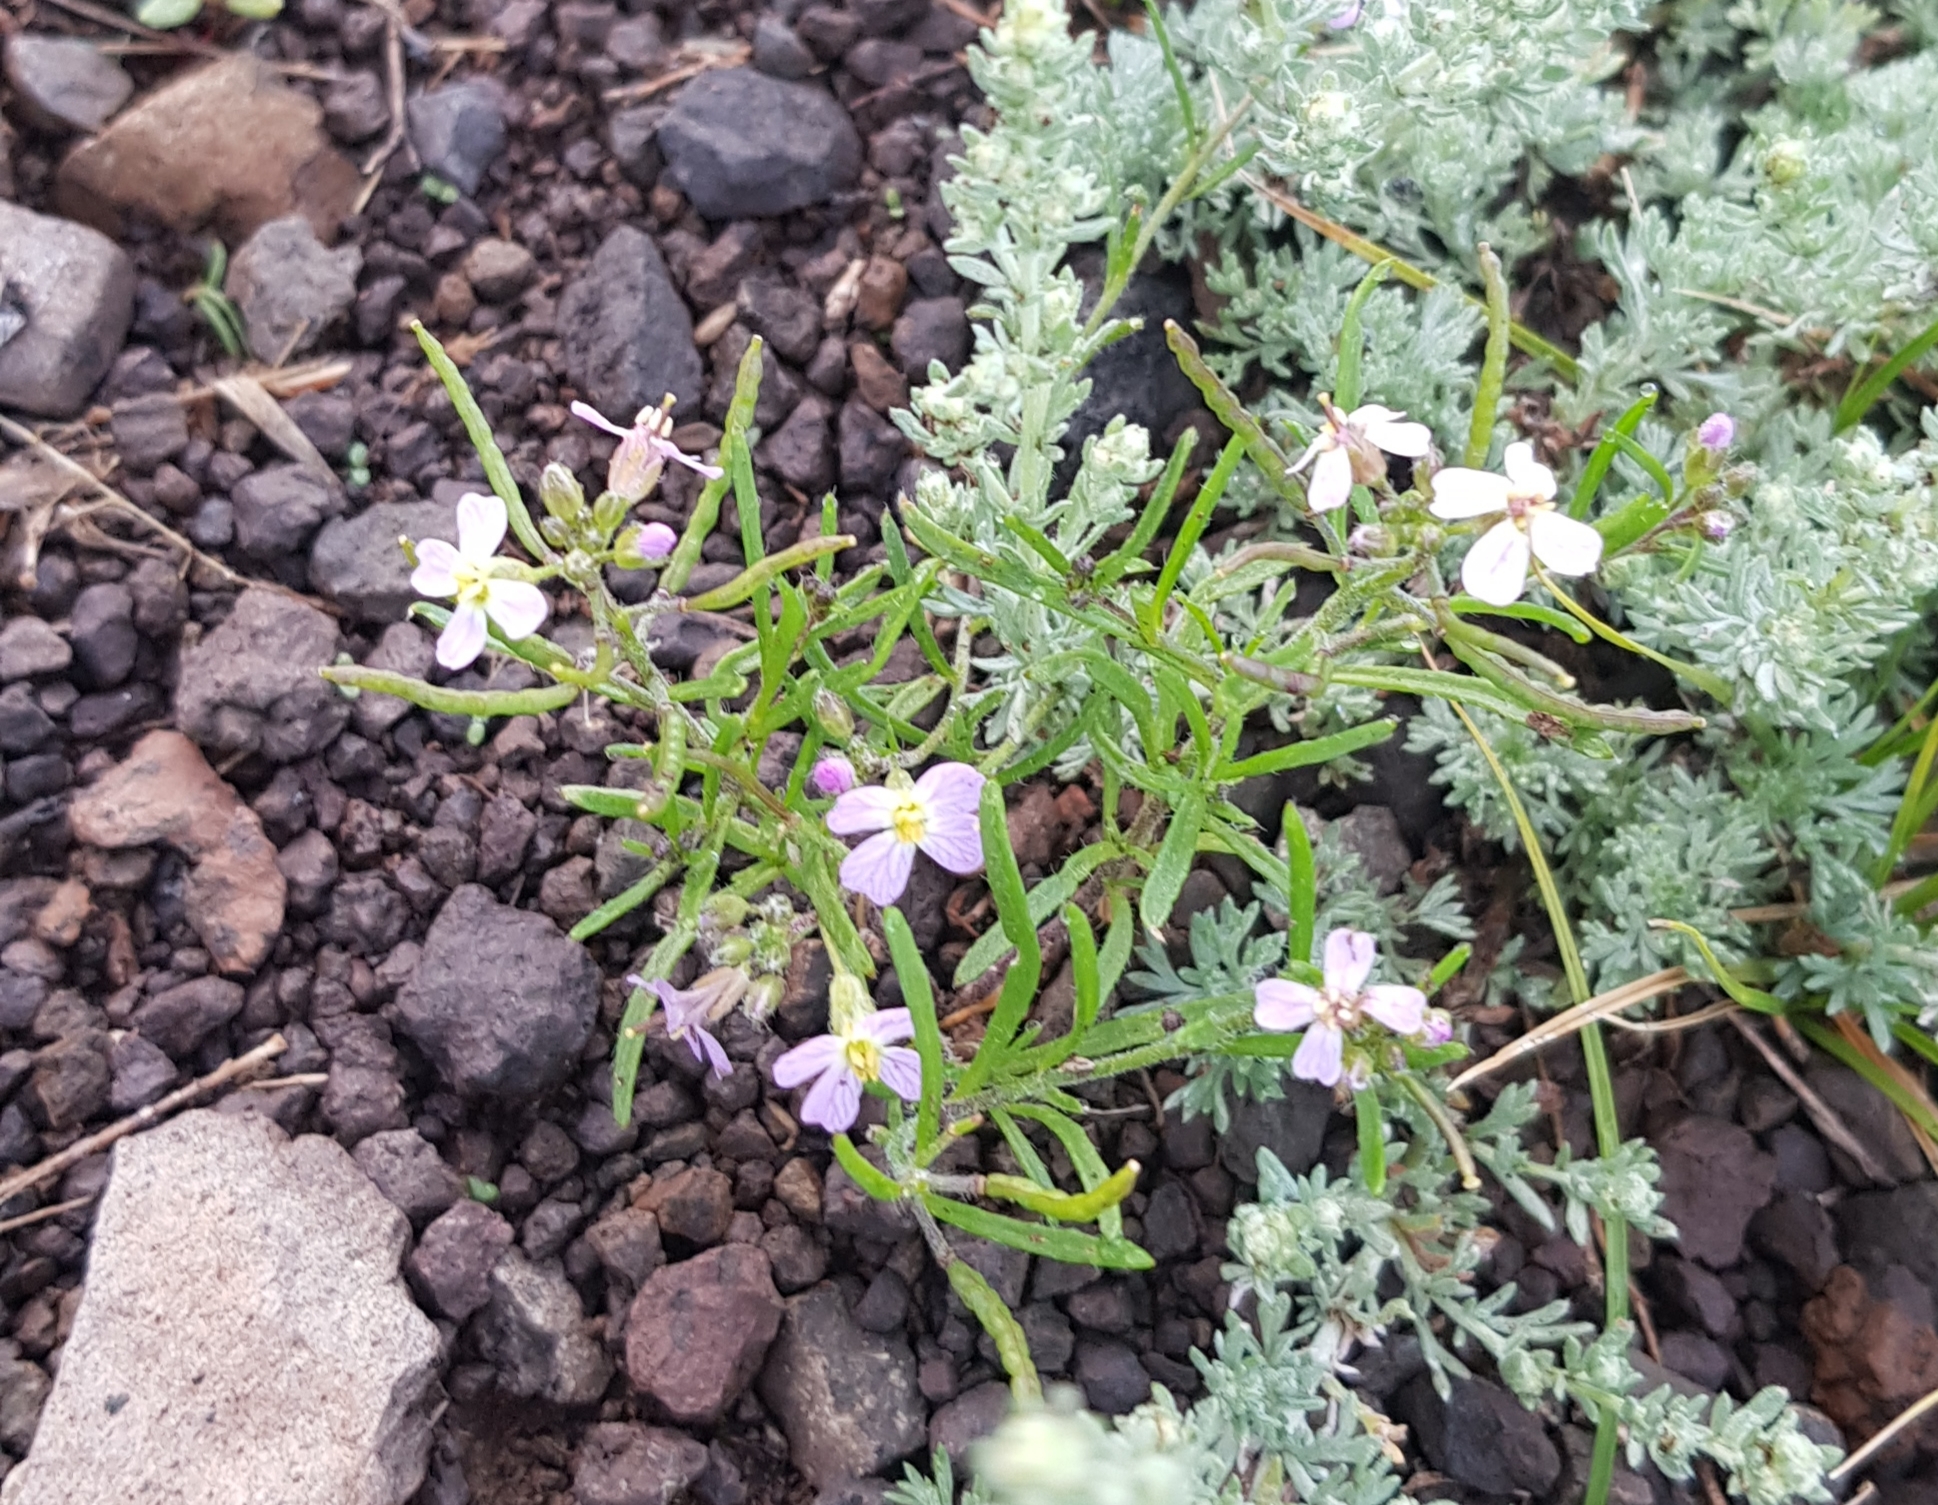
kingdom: Plantae
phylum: Tracheophyta
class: Magnoliopsida
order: Brassicales
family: Brassicaceae
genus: Dontostemon
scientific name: Dontostemon integrifolius
